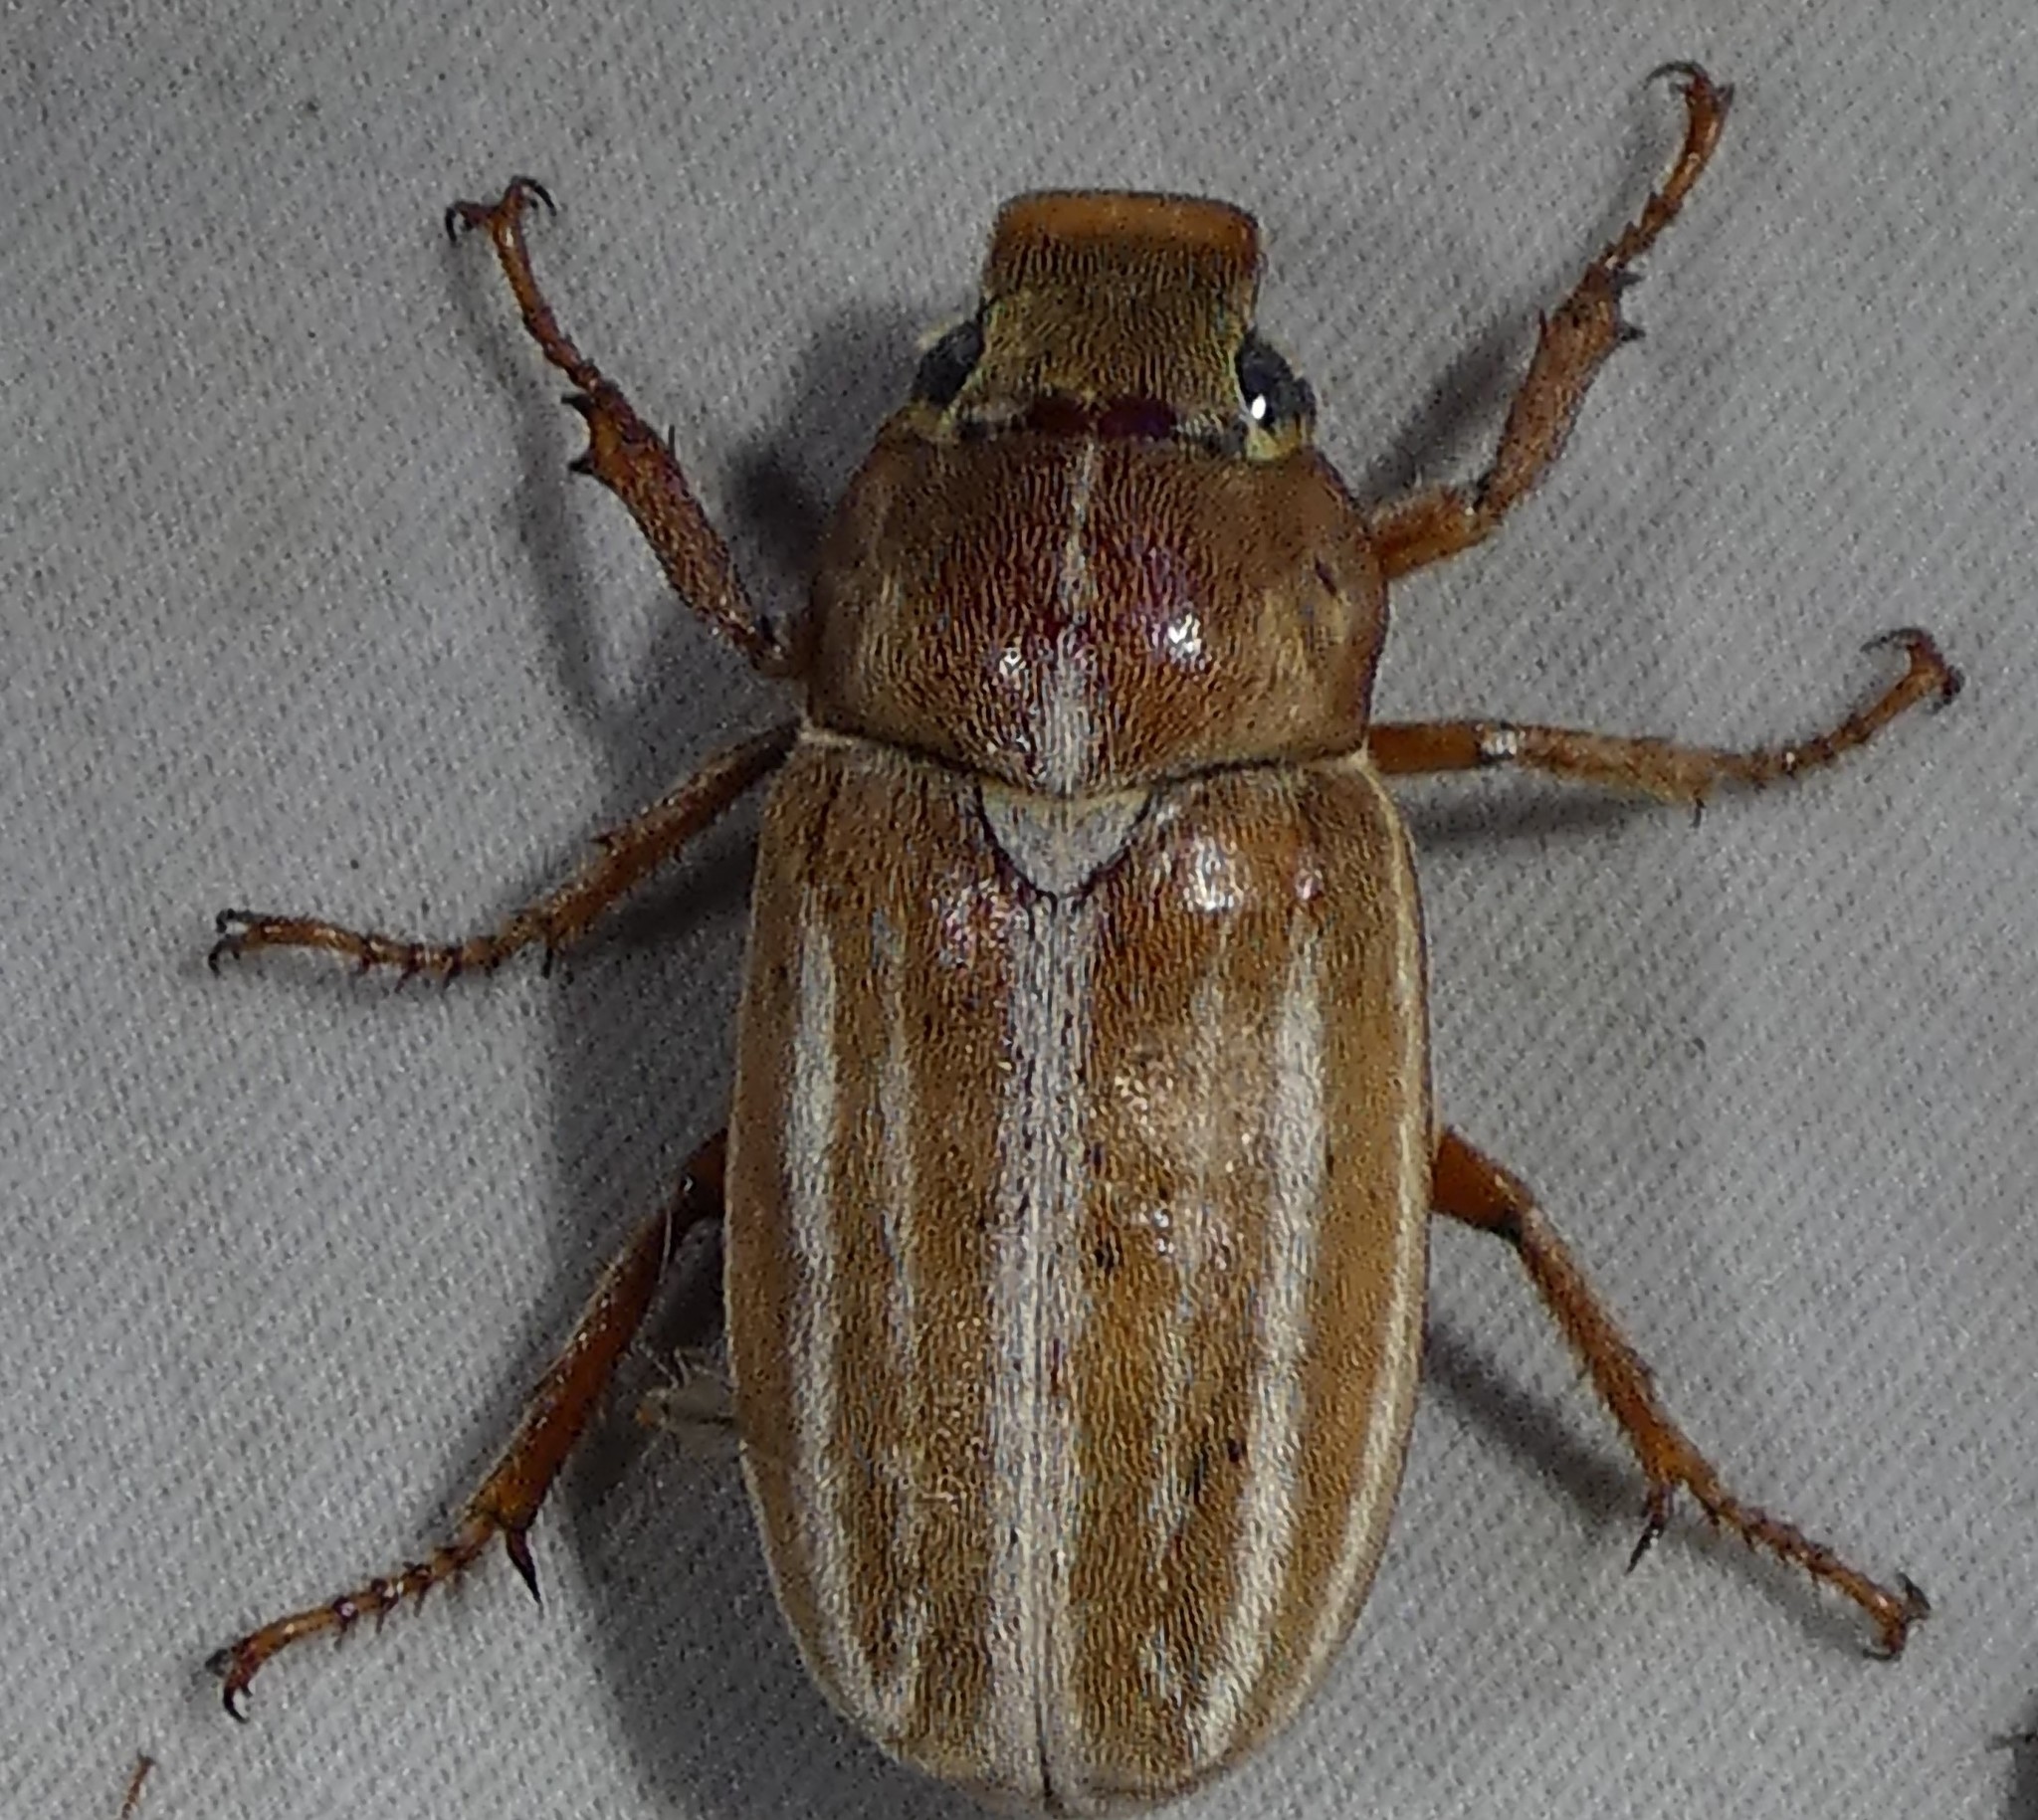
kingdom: Animalia
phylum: Arthropoda
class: Insecta
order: Coleoptera
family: Scarabaeidae
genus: Polyphylla
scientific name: Polyphylla occidentalis
